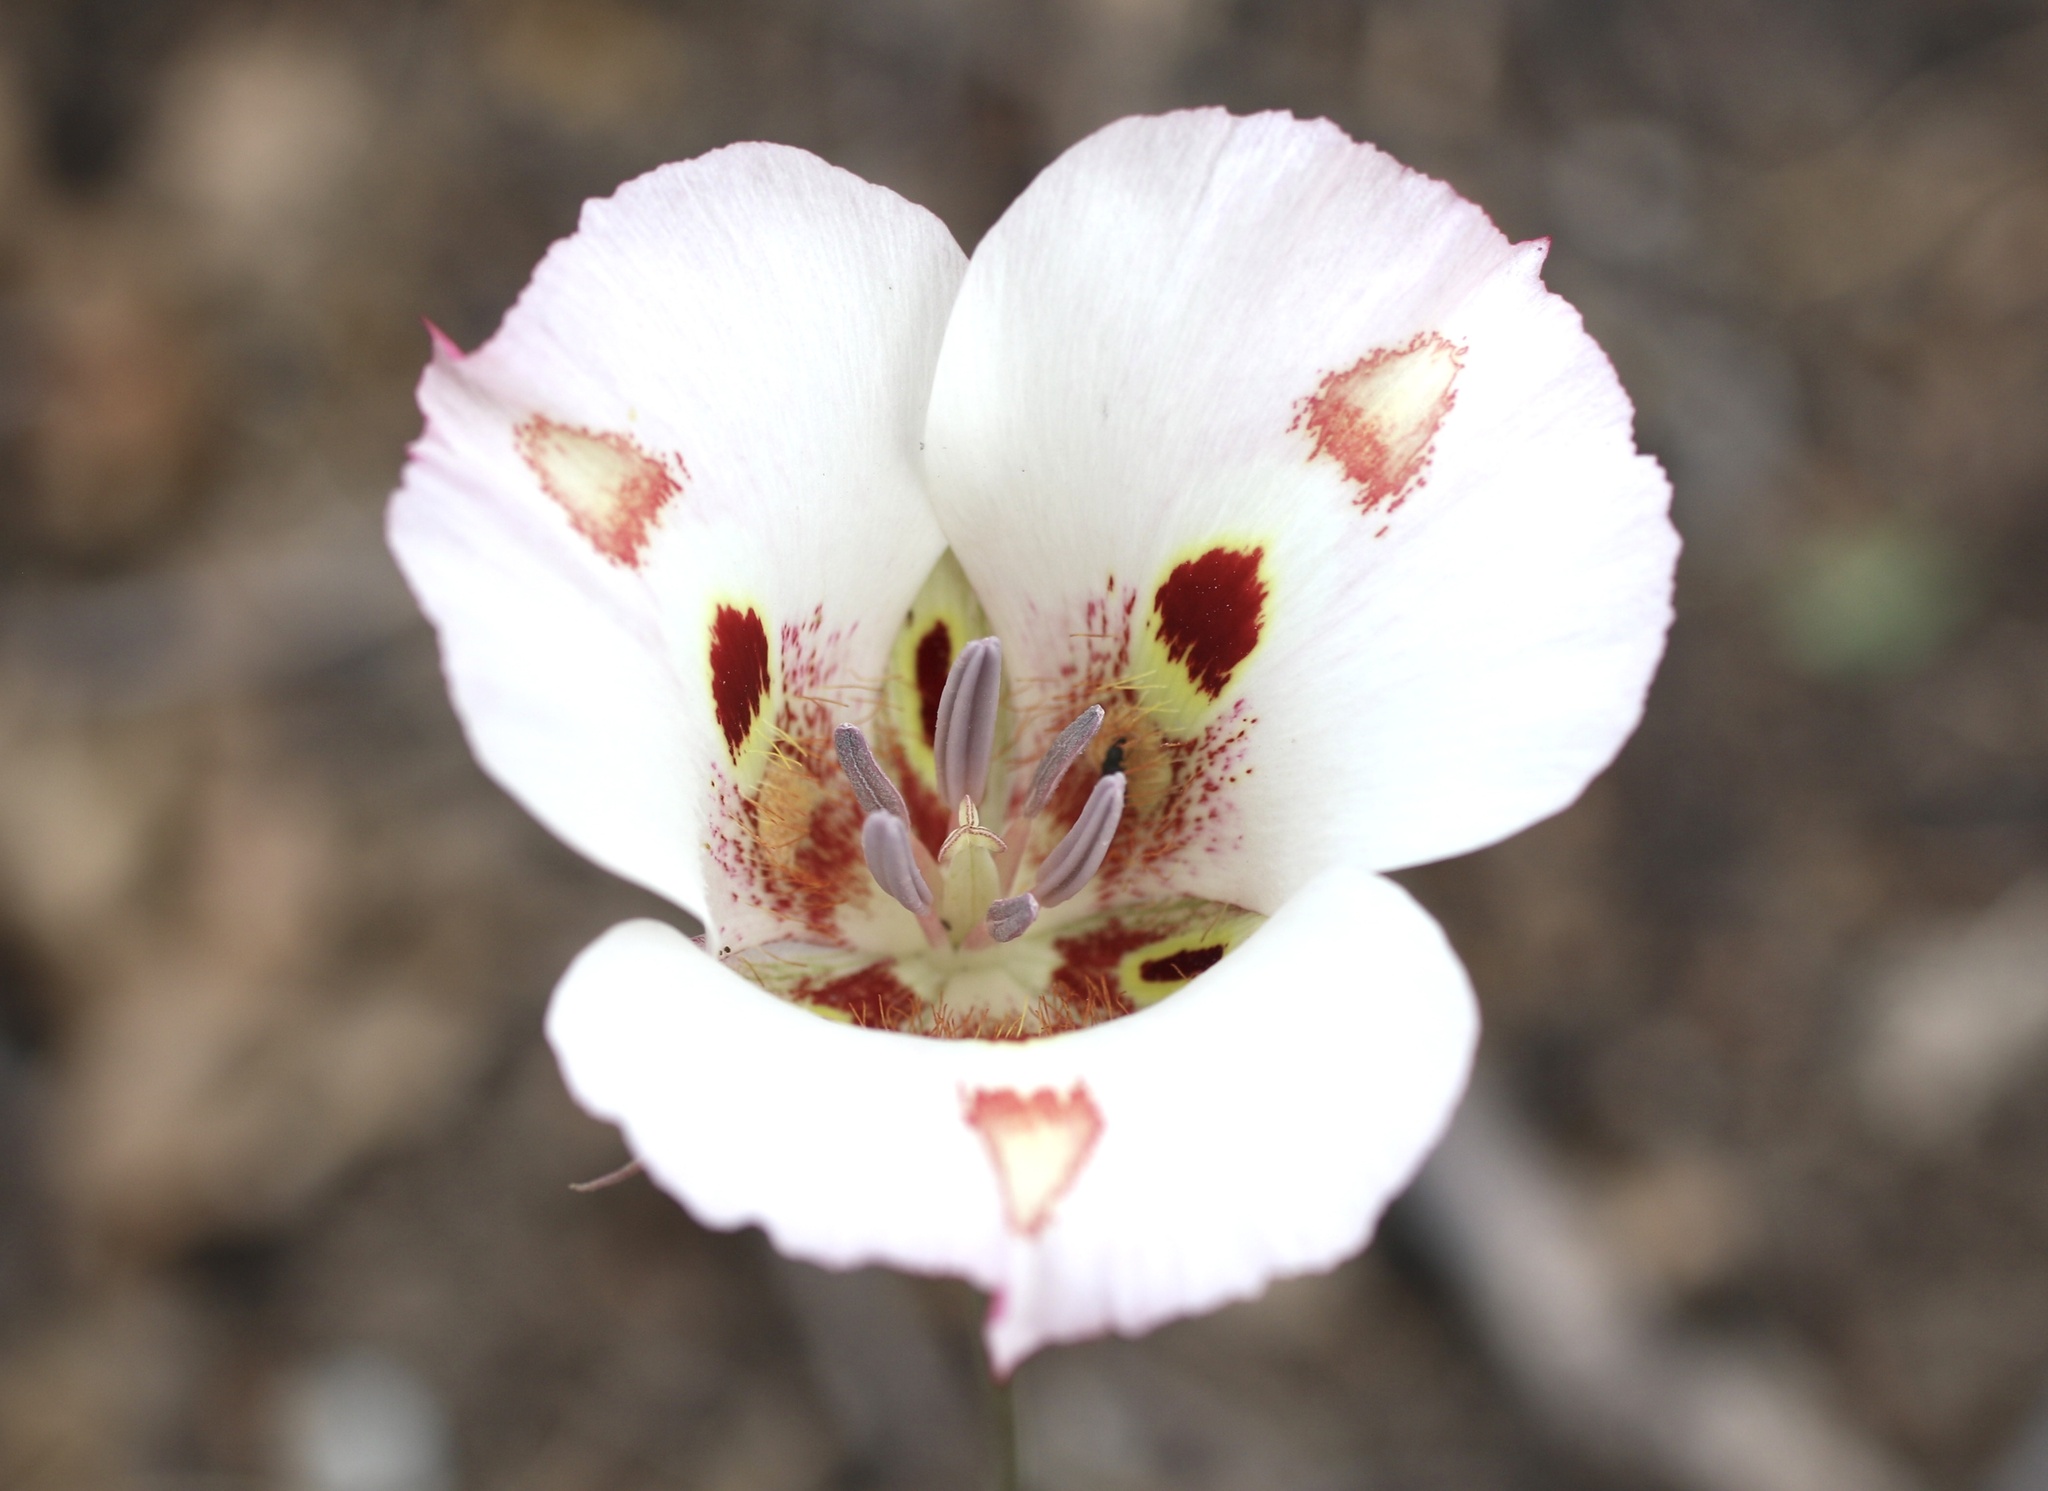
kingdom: Plantae
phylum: Tracheophyta
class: Liliopsida
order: Liliales
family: Liliaceae
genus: Calochortus
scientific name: Calochortus venustus
